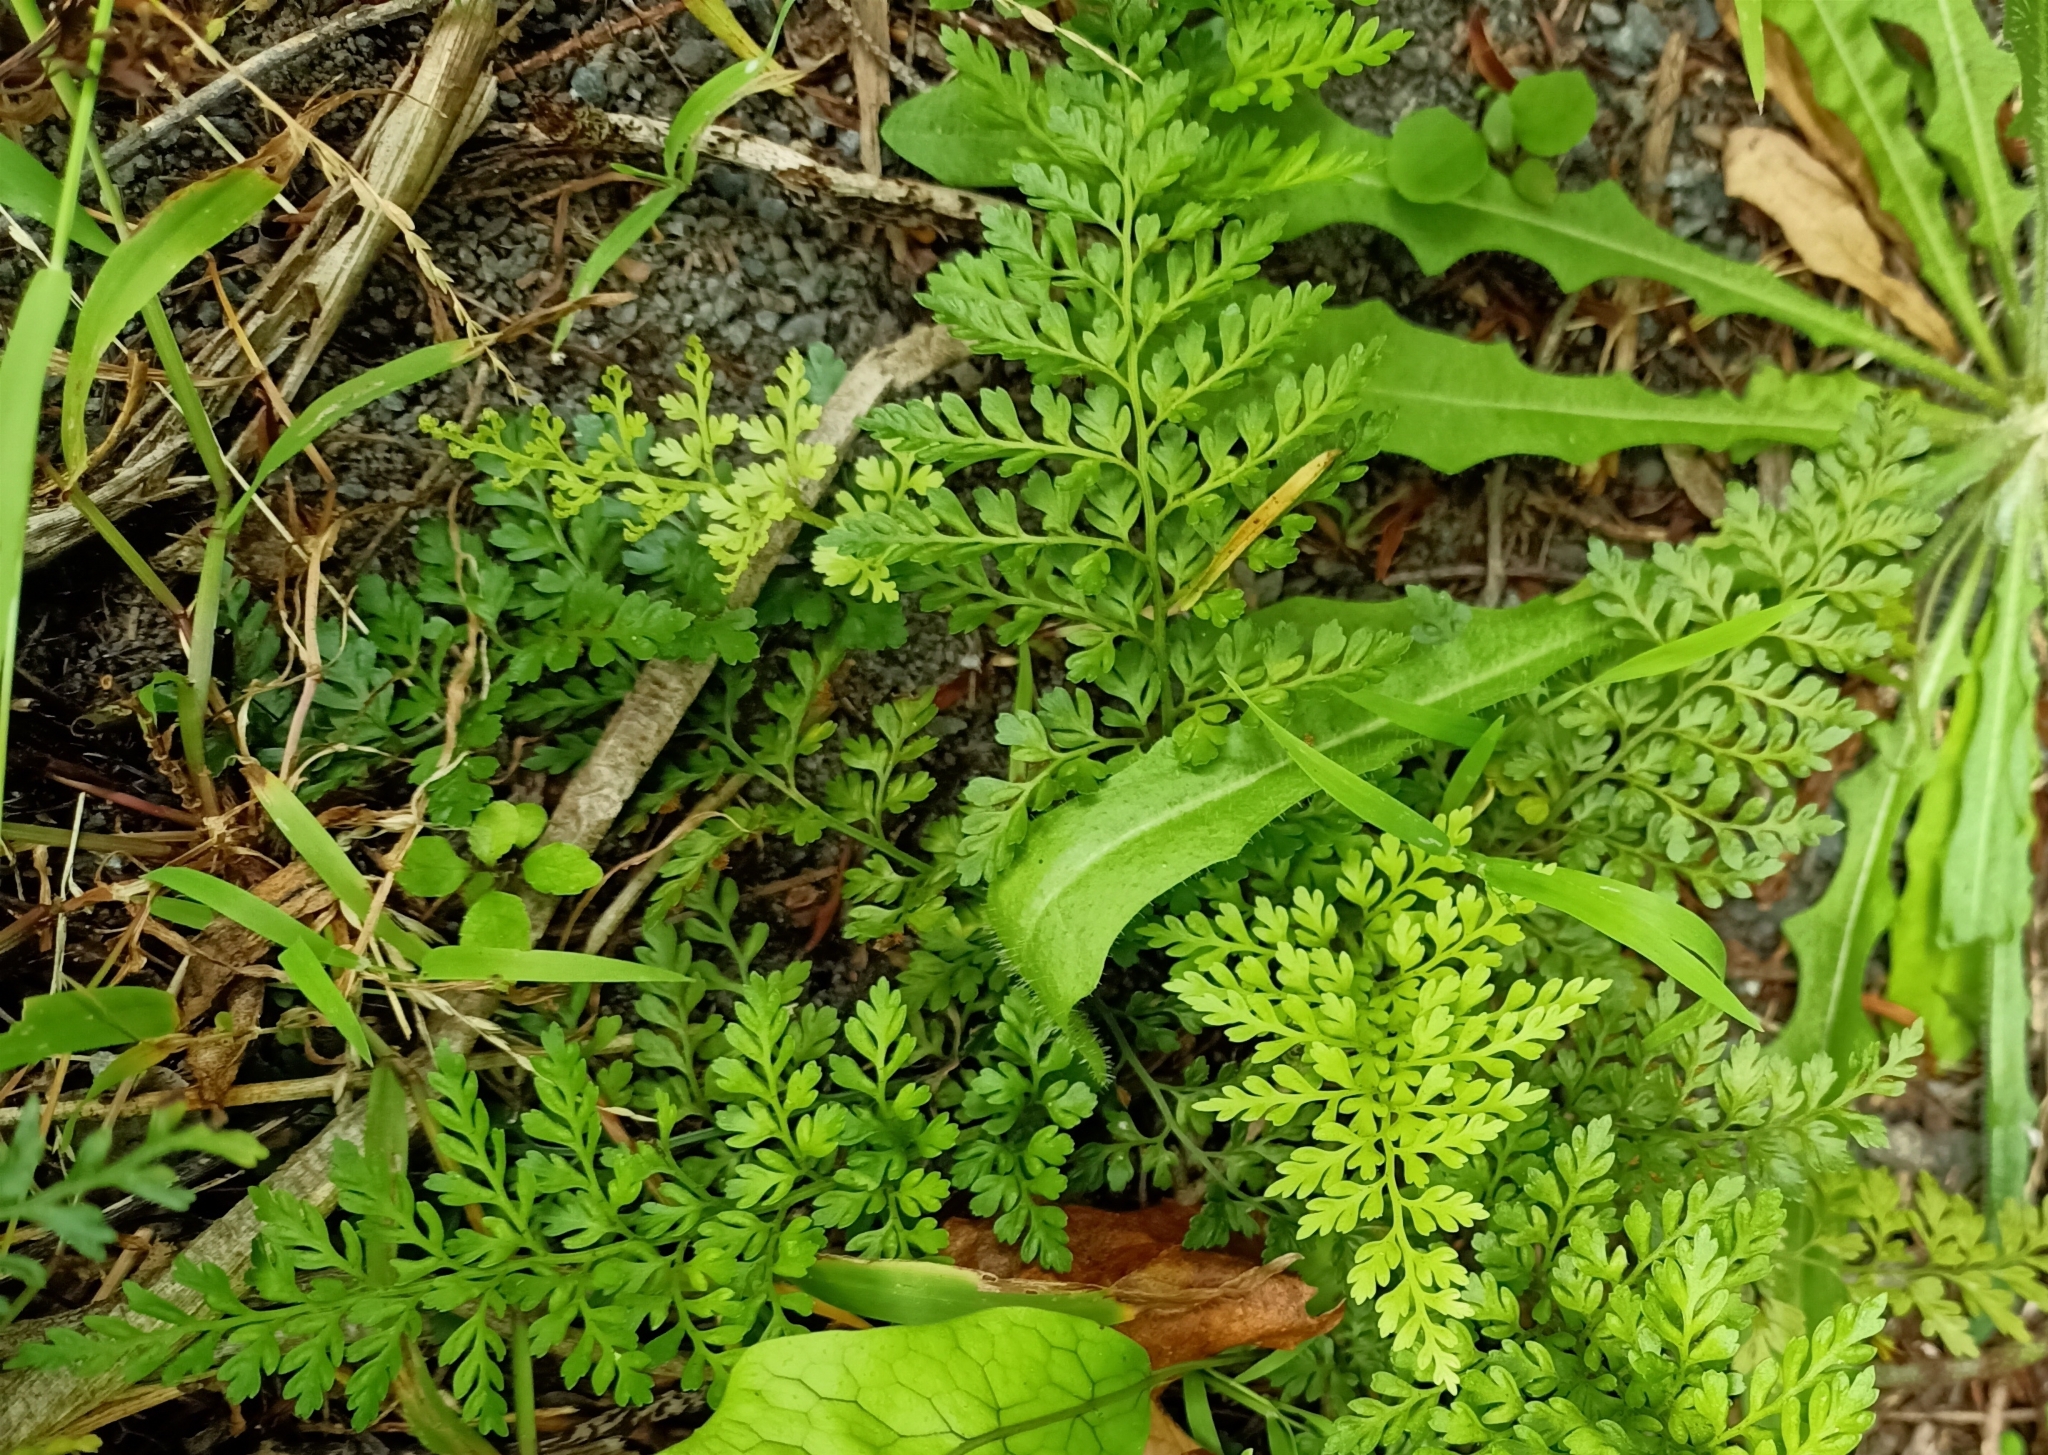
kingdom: Plantae
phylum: Tracheophyta
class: Polypodiopsida
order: Polypodiales
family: Aspleniaceae
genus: Asplenium
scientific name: Asplenium hookerianum
